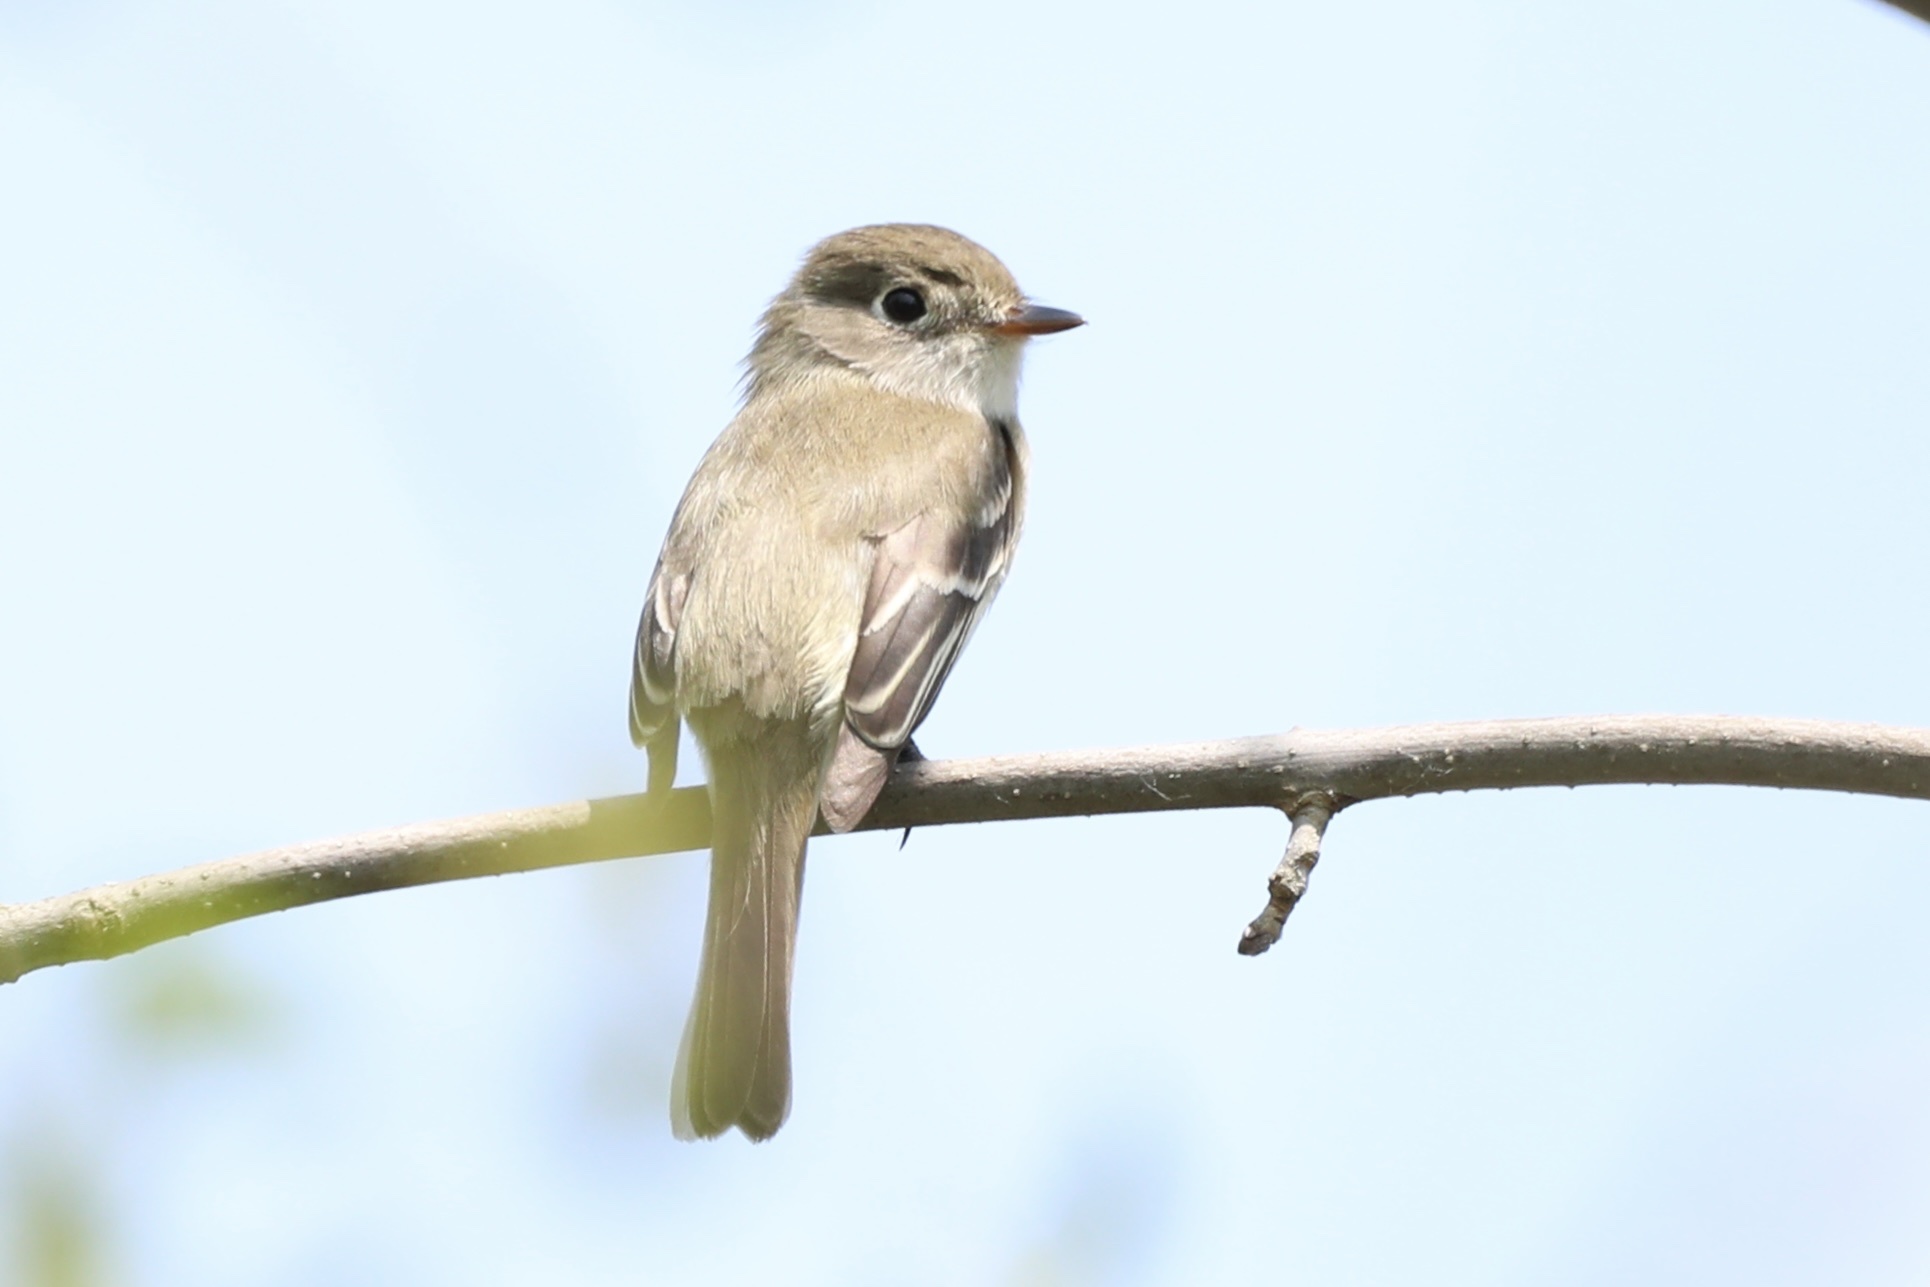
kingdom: Animalia
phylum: Chordata
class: Aves
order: Passeriformes
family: Tyrannidae
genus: Empidonax
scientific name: Empidonax minimus
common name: Least flycatcher
